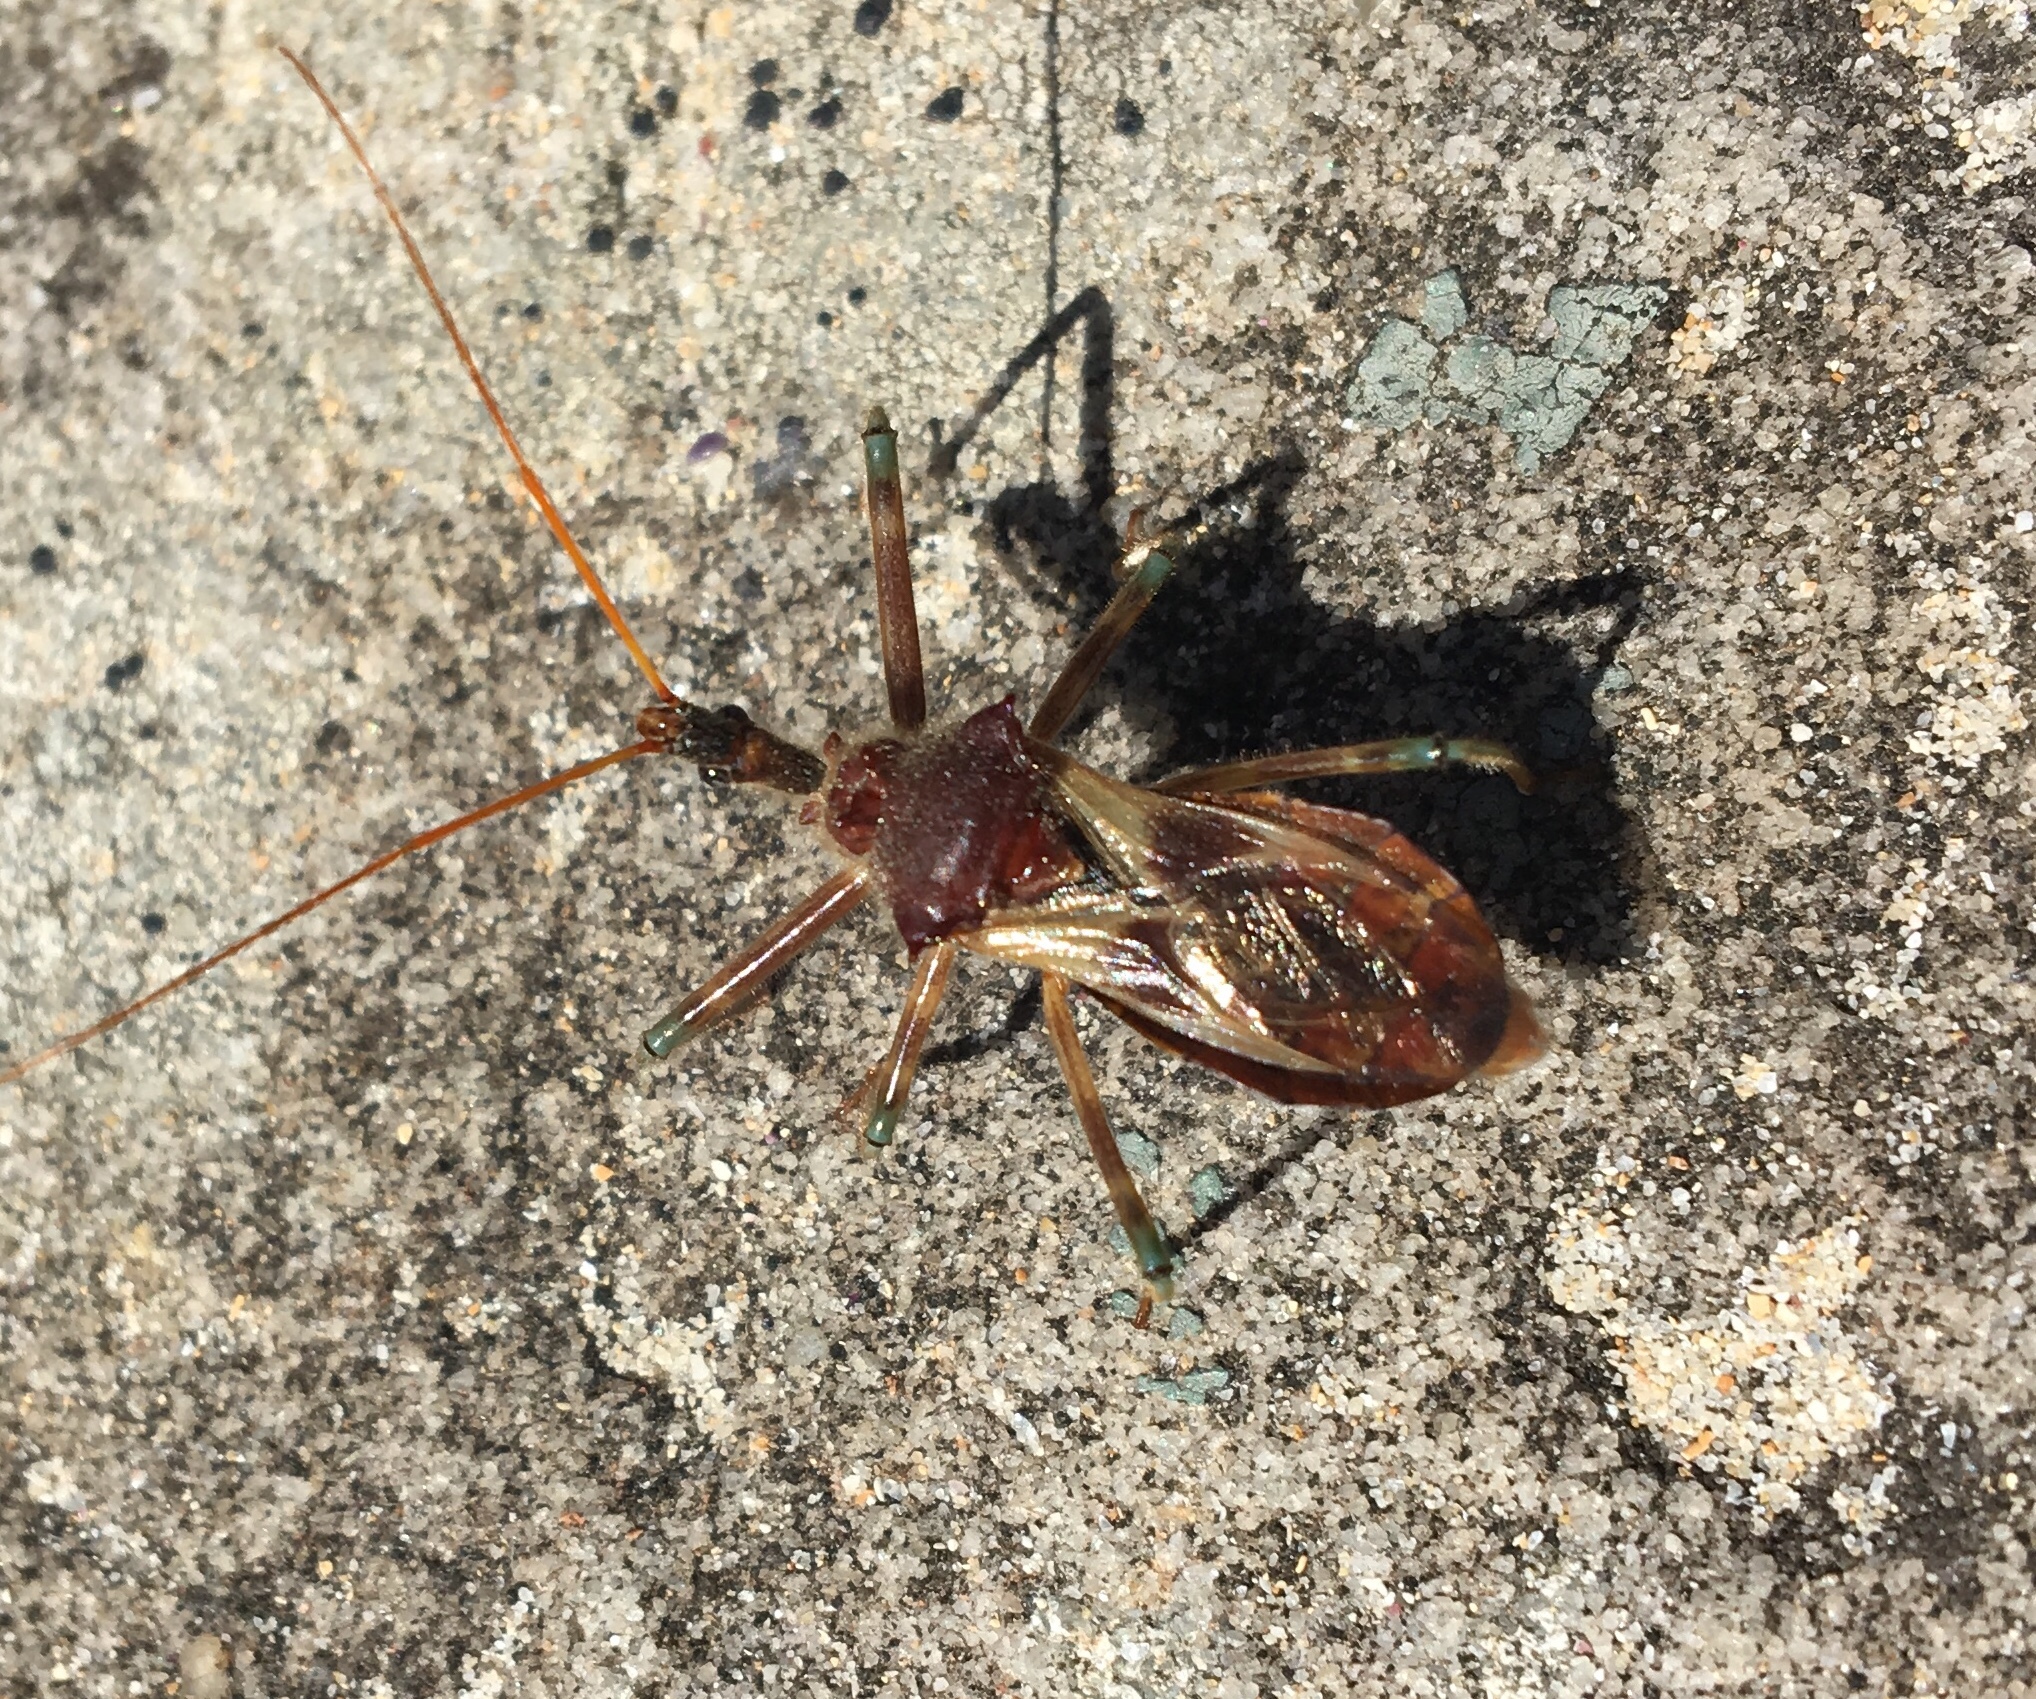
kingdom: Animalia
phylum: Arthropoda
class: Insecta
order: Hemiptera
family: Reduviidae
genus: Pristhesancus
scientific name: Pristhesancus plagipennis
